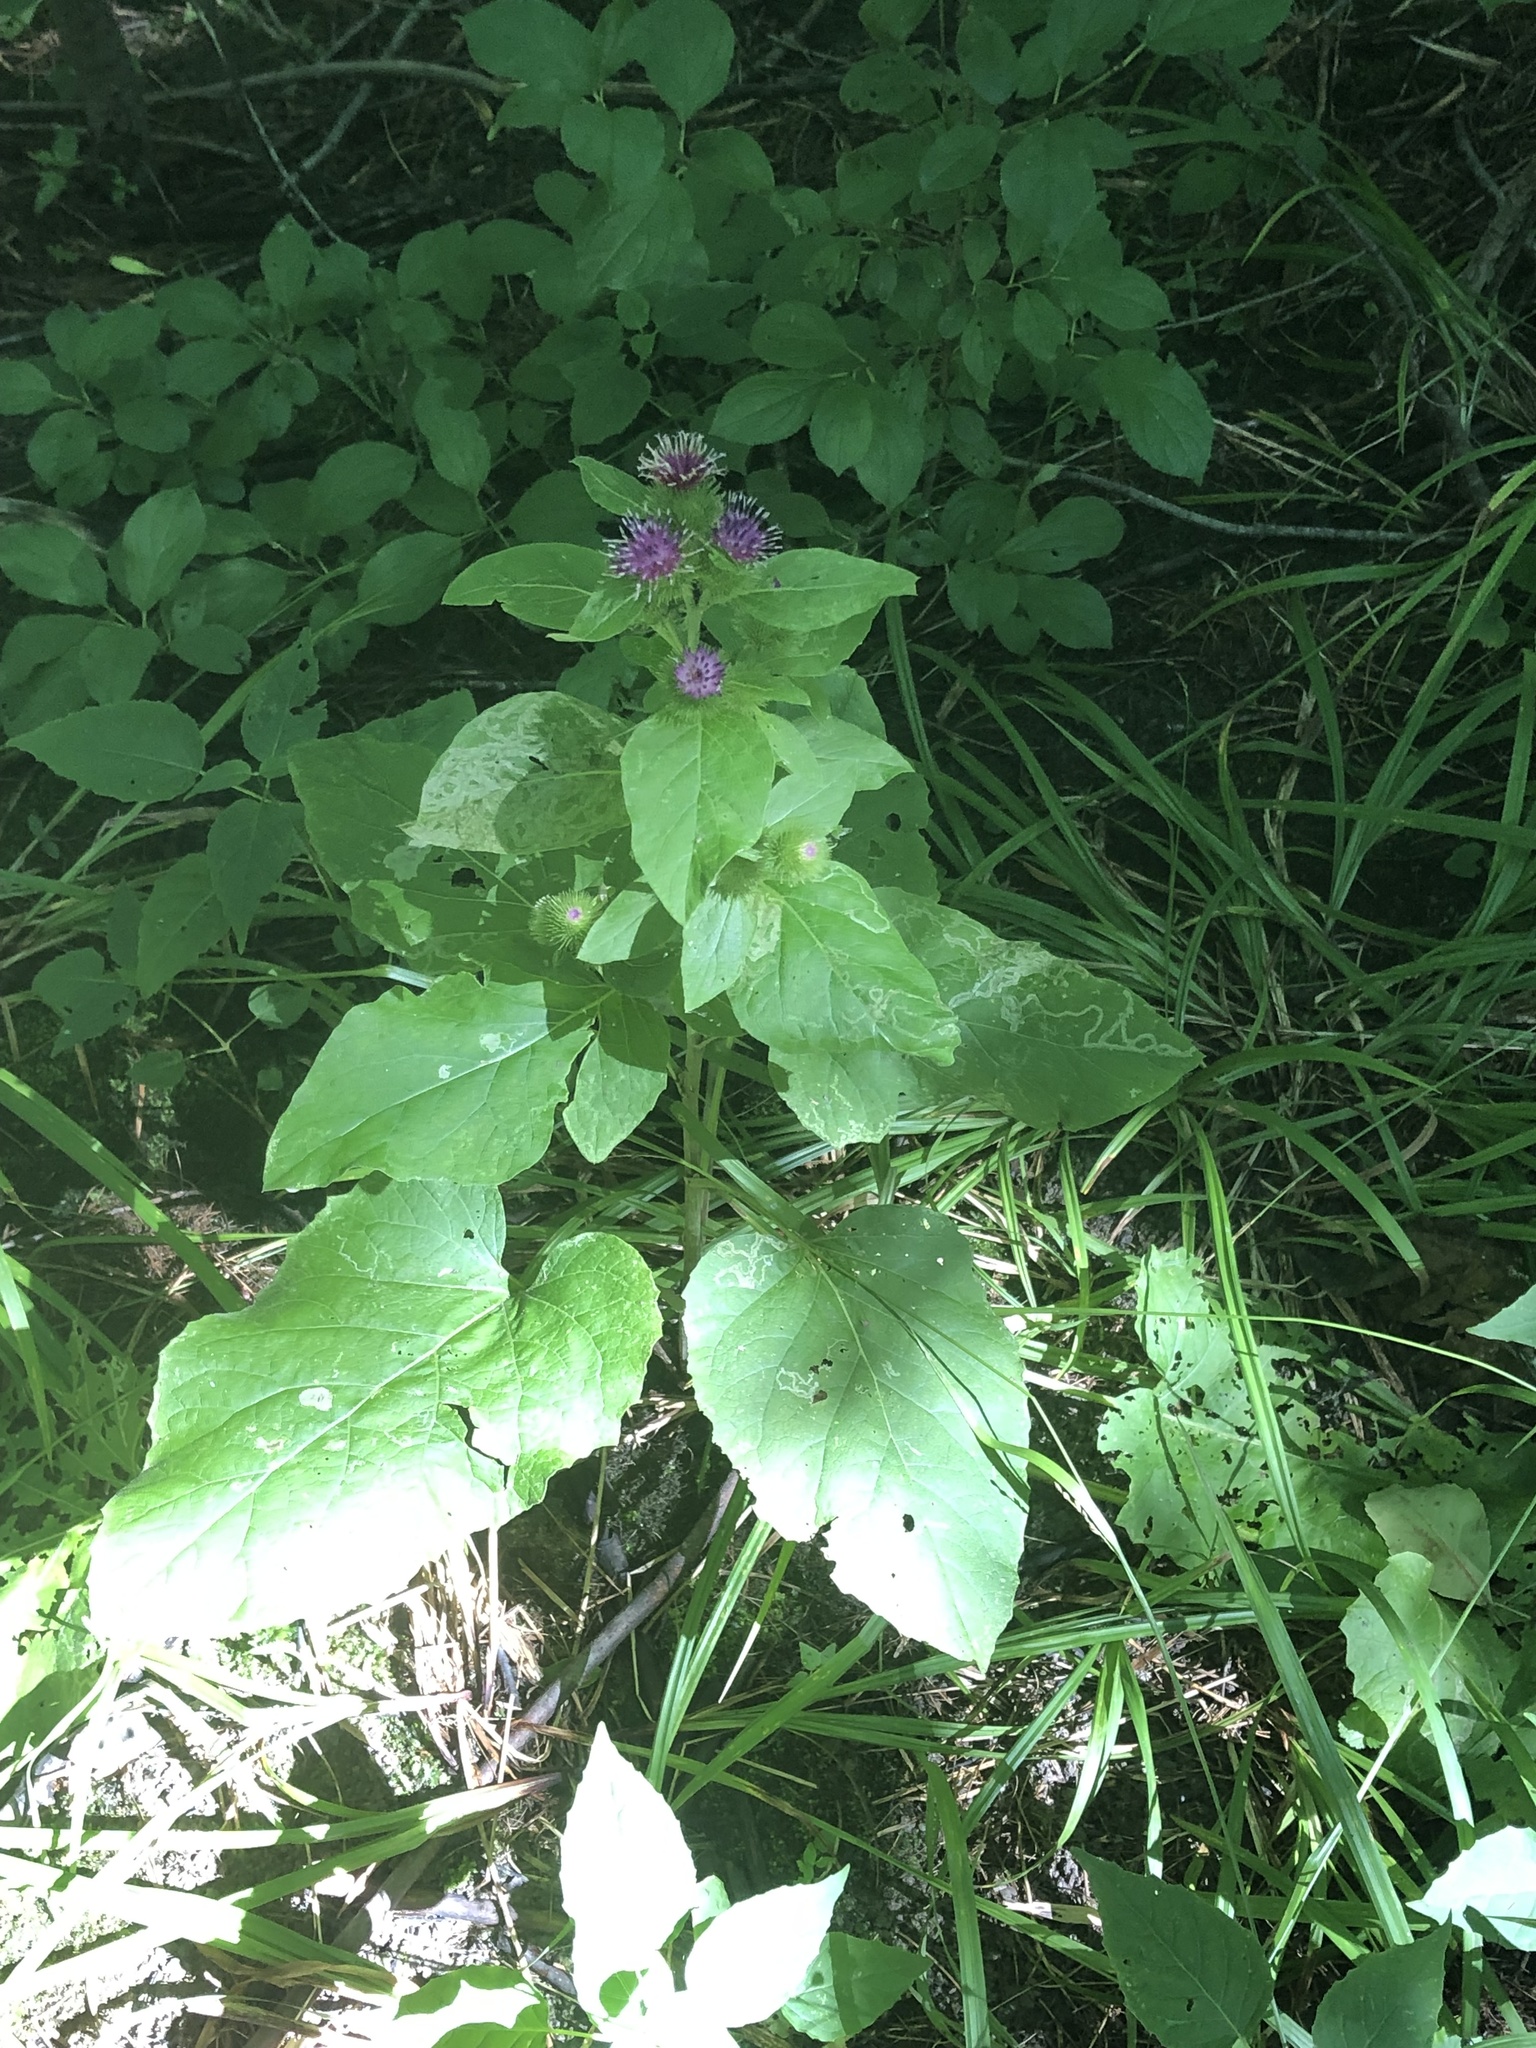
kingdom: Plantae
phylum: Tracheophyta
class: Magnoliopsida
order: Asterales
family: Asteraceae
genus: Arctium
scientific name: Arctium minus
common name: Lesser burdock
